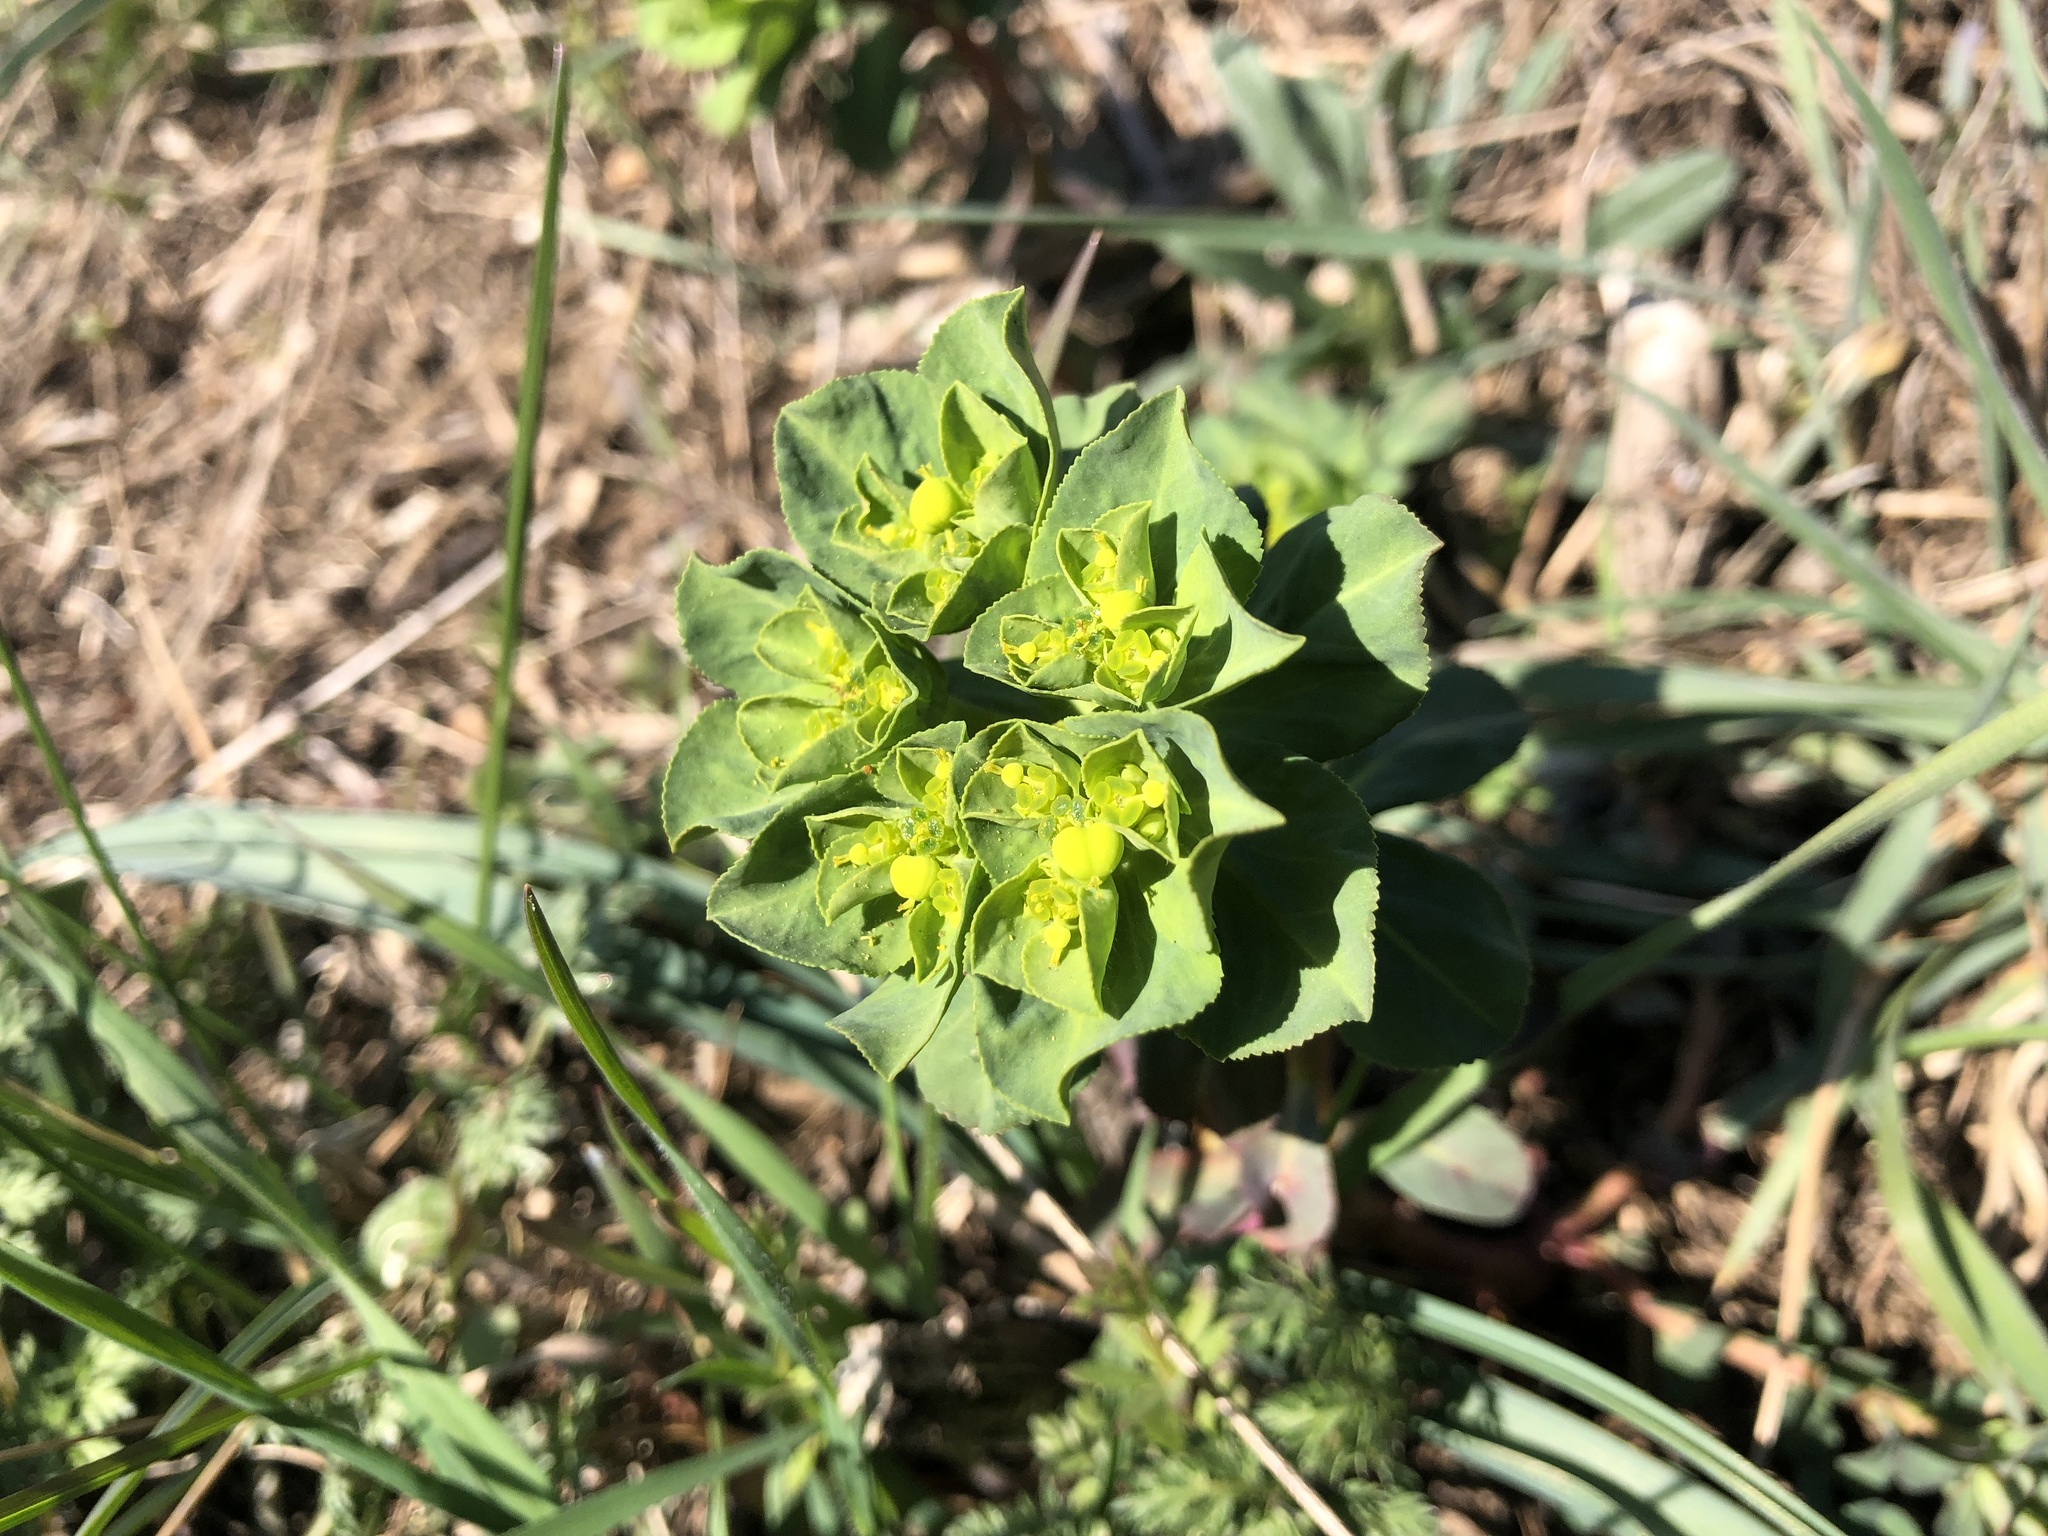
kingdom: Plantae
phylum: Tracheophyta
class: Magnoliopsida
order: Malpighiales
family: Euphorbiaceae
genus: Euphorbia
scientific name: Euphorbia helioscopia
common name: Sun spurge
